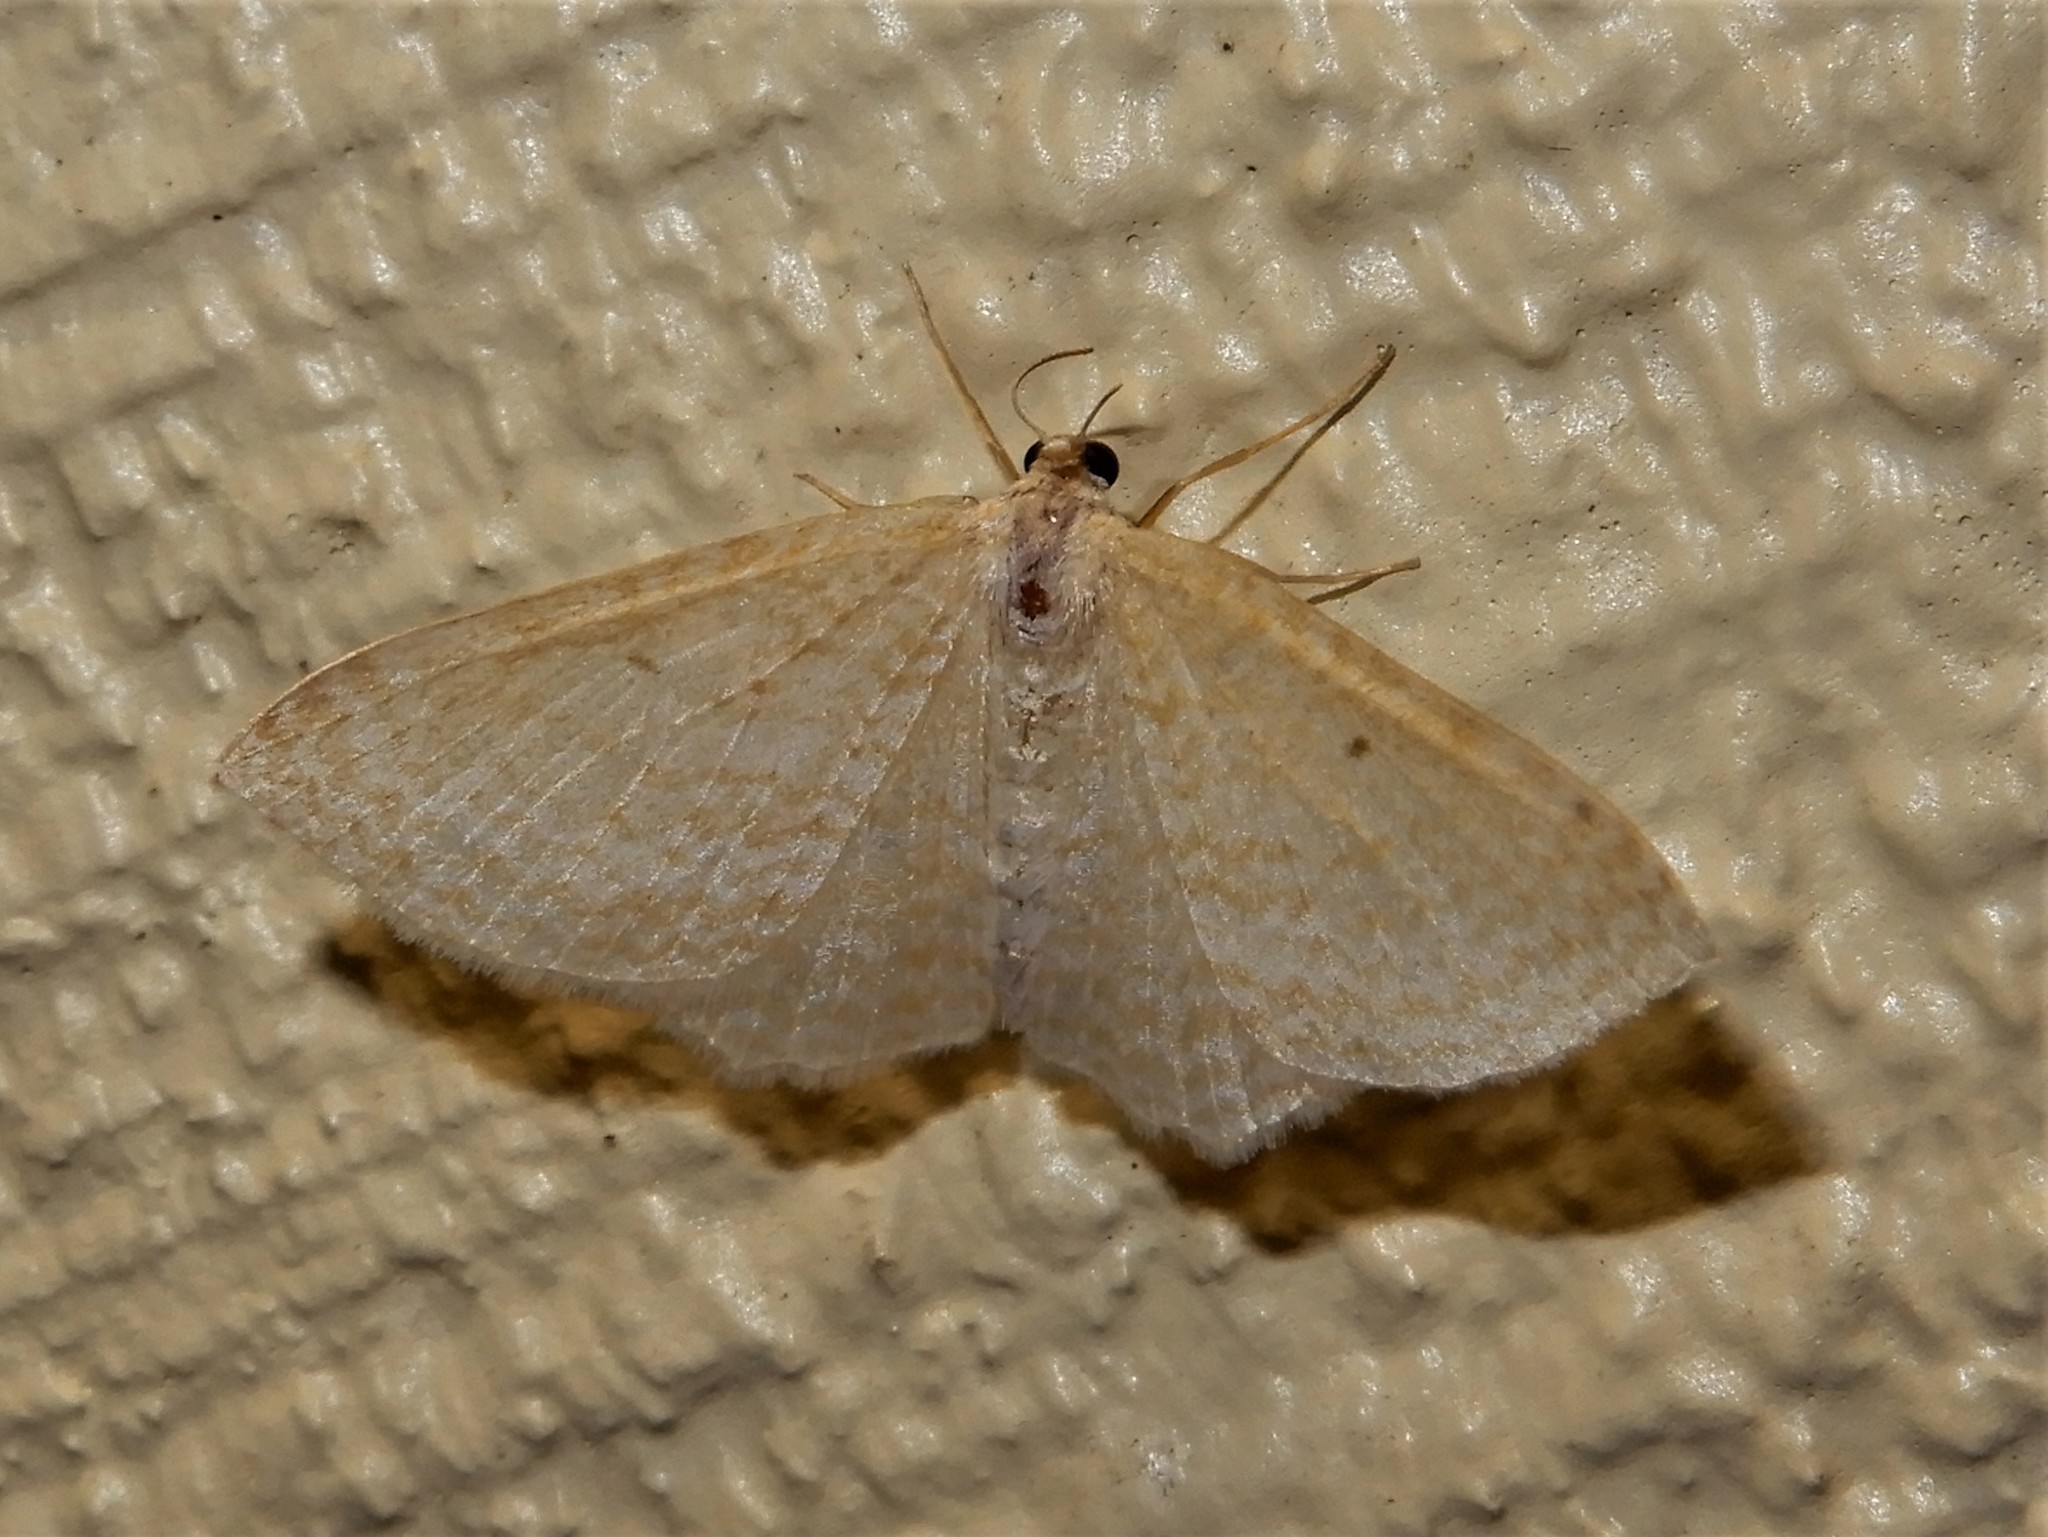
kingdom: Animalia
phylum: Arthropoda
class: Insecta
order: Lepidoptera
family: Geometridae
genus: Poecilasthena
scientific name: Poecilasthena pulchraria
